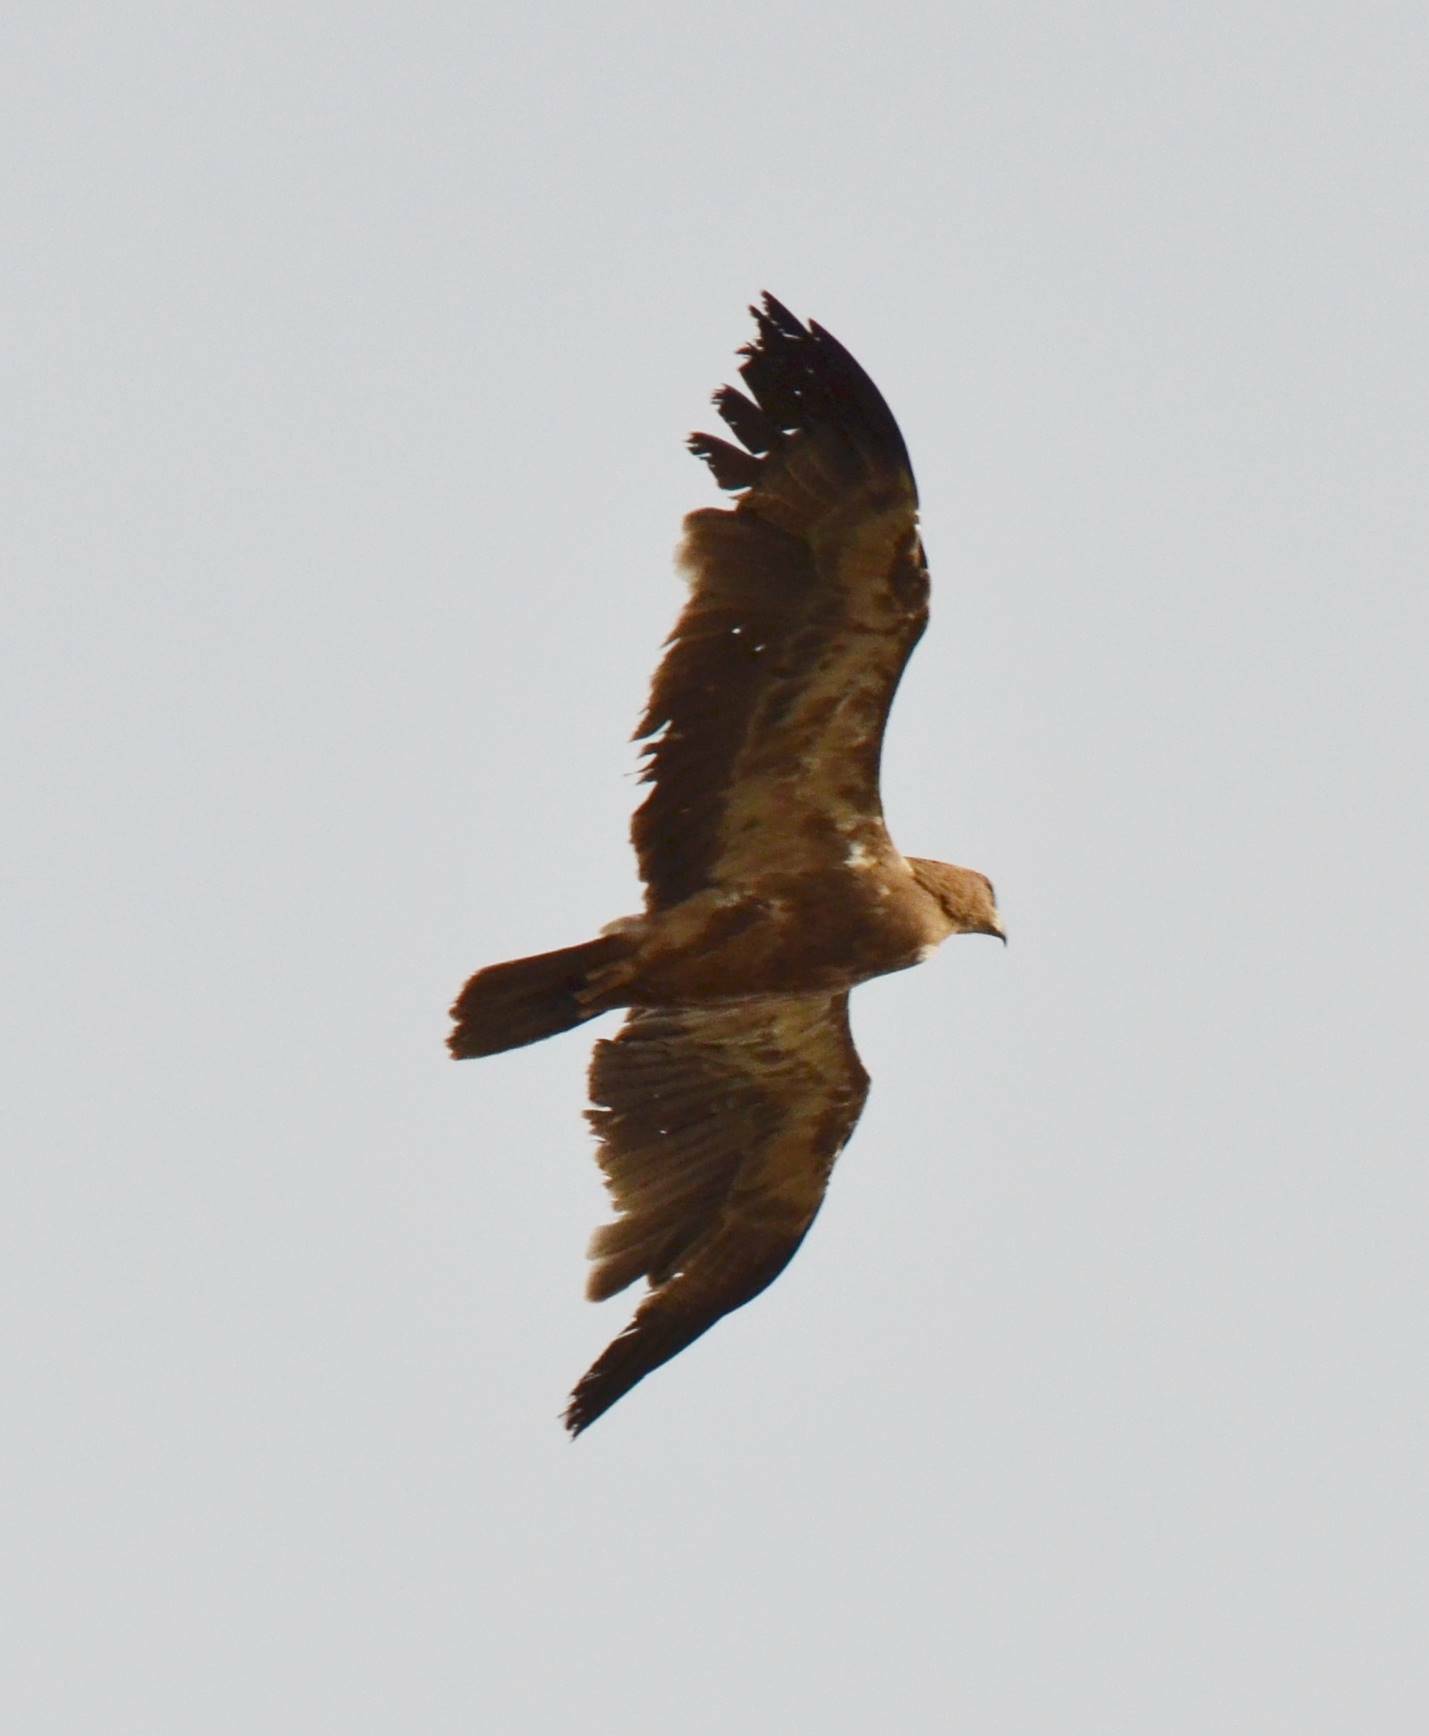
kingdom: Animalia
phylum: Chordata
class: Aves
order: Accipitriformes
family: Accipitridae
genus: Aquila
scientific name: Aquila rapax
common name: Tawny eagle
